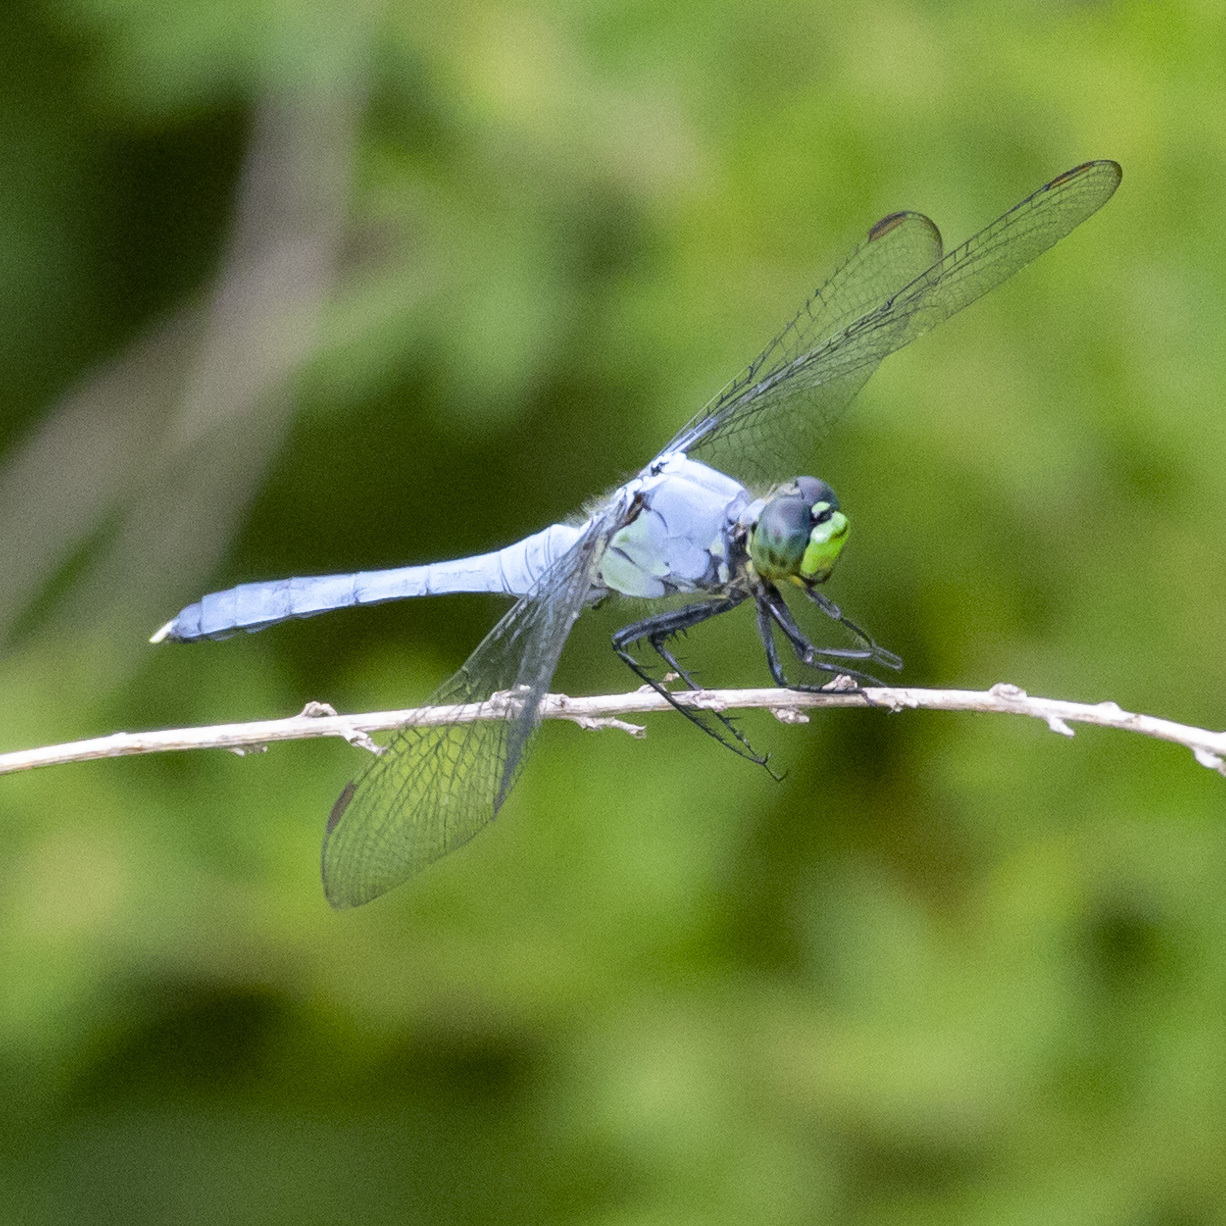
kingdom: Animalia
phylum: Arthropoda
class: Insecta
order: Odonata
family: Libellulidae
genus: Erythemis
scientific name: Erythemis simplicicollis
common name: Eastern pondhawk
